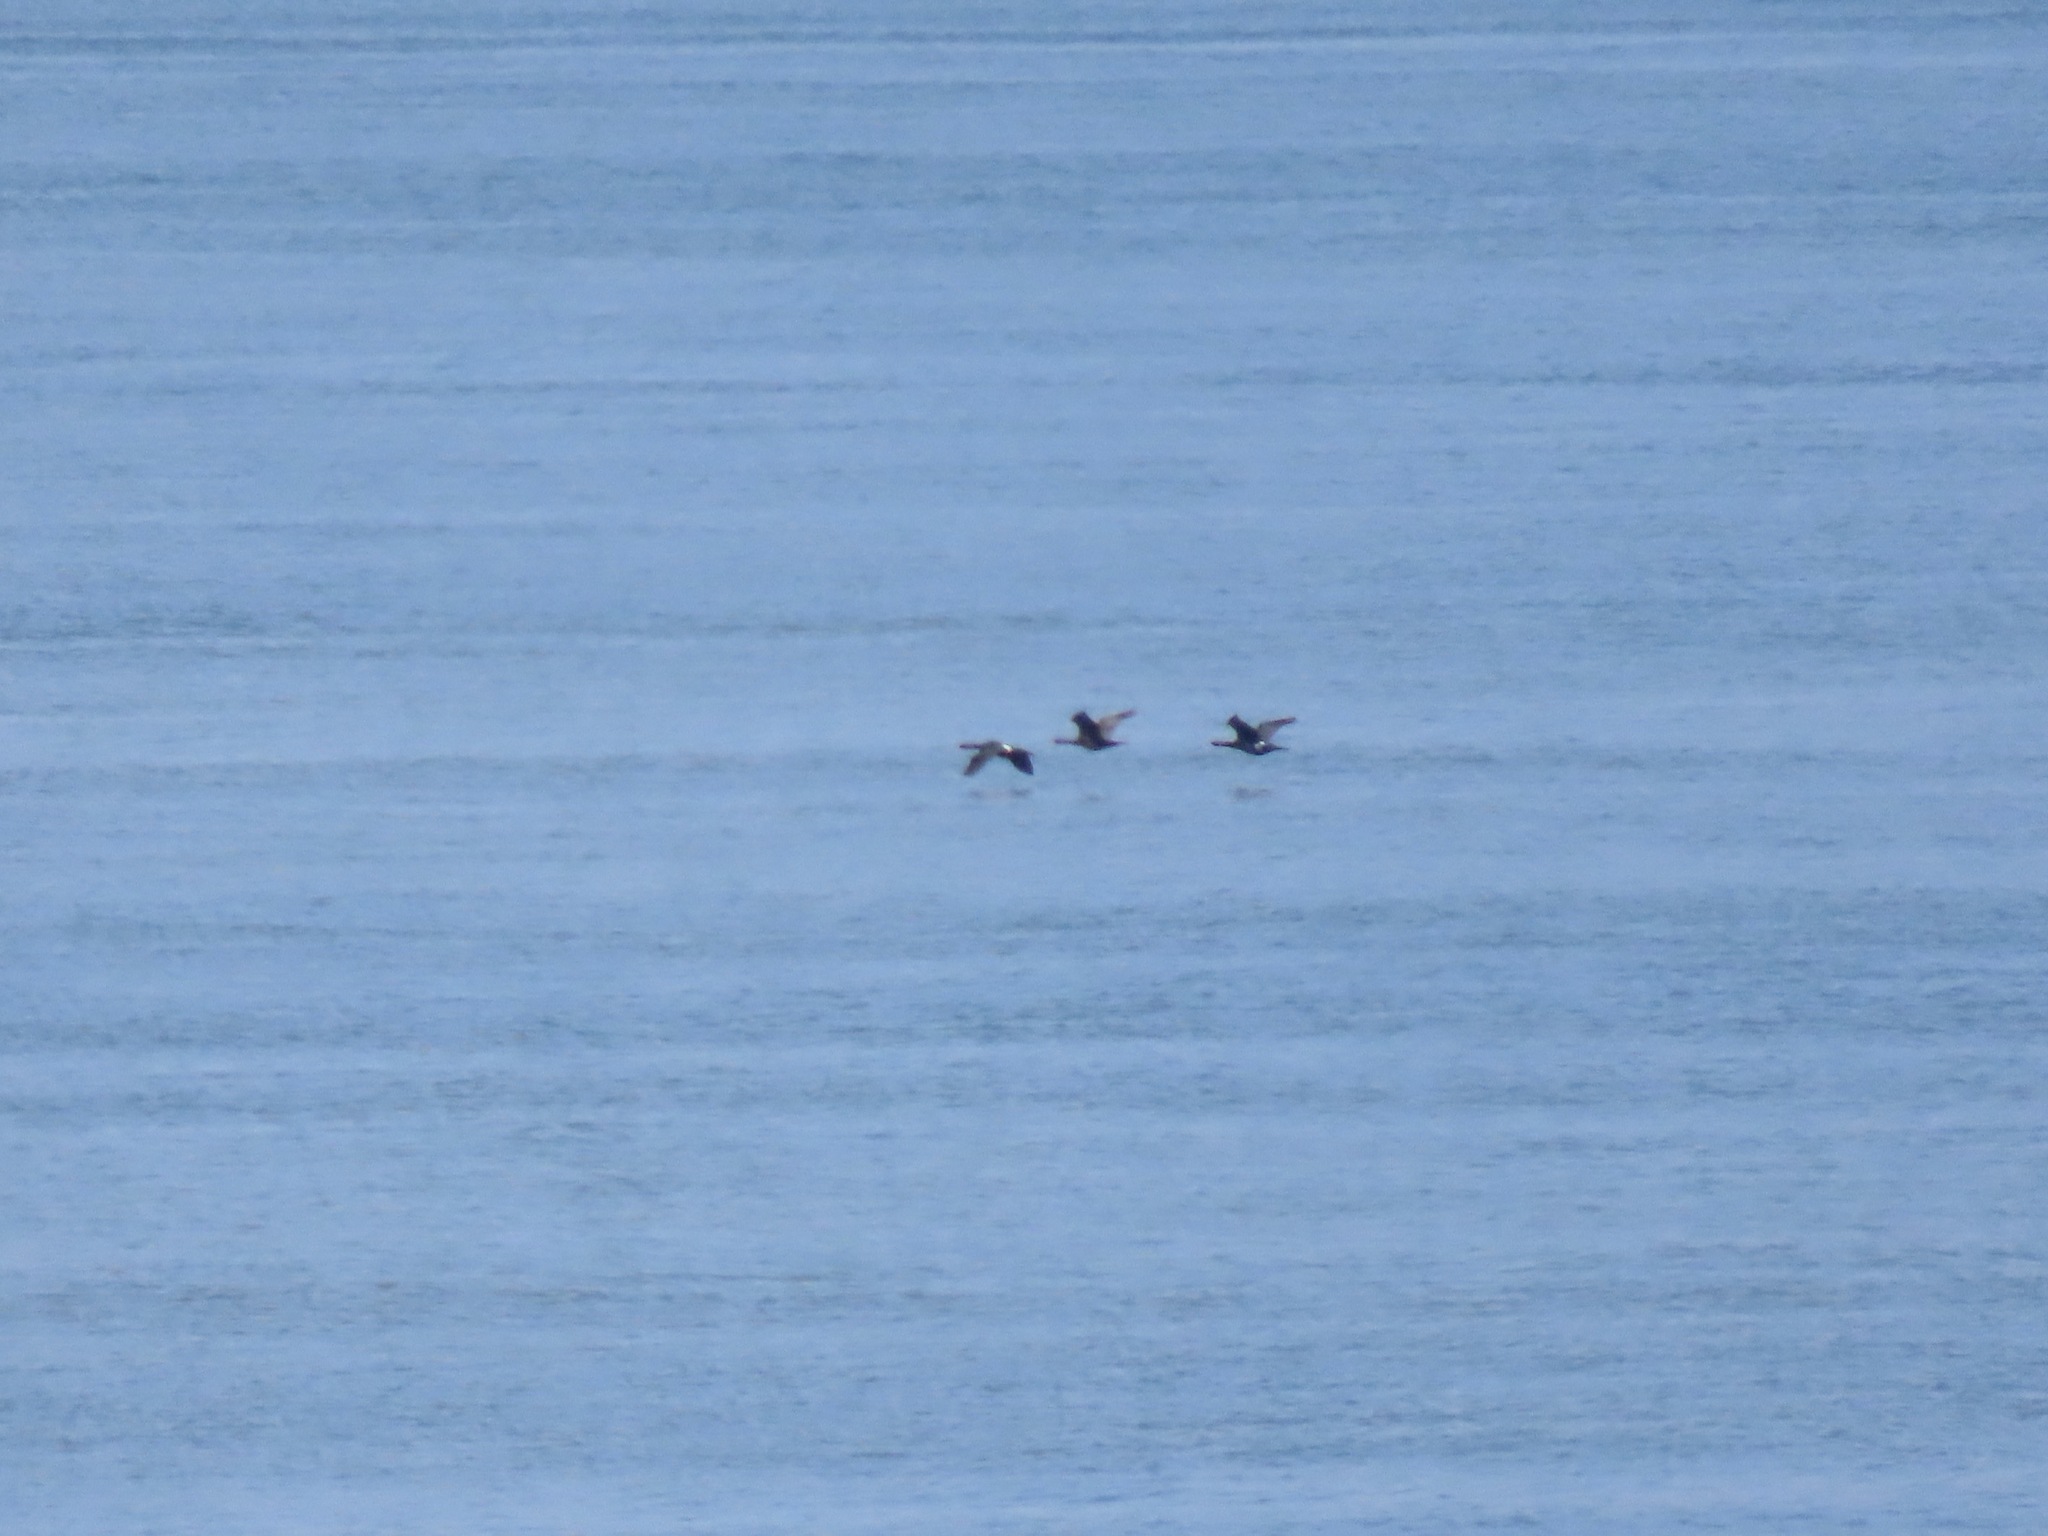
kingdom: Animalia
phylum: Chordata
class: Aves
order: Suliformes
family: Phalacrocoracidae
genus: Phalacrocorax
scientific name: Phalacrocorax pelagicus
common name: Pelagic cormorant
